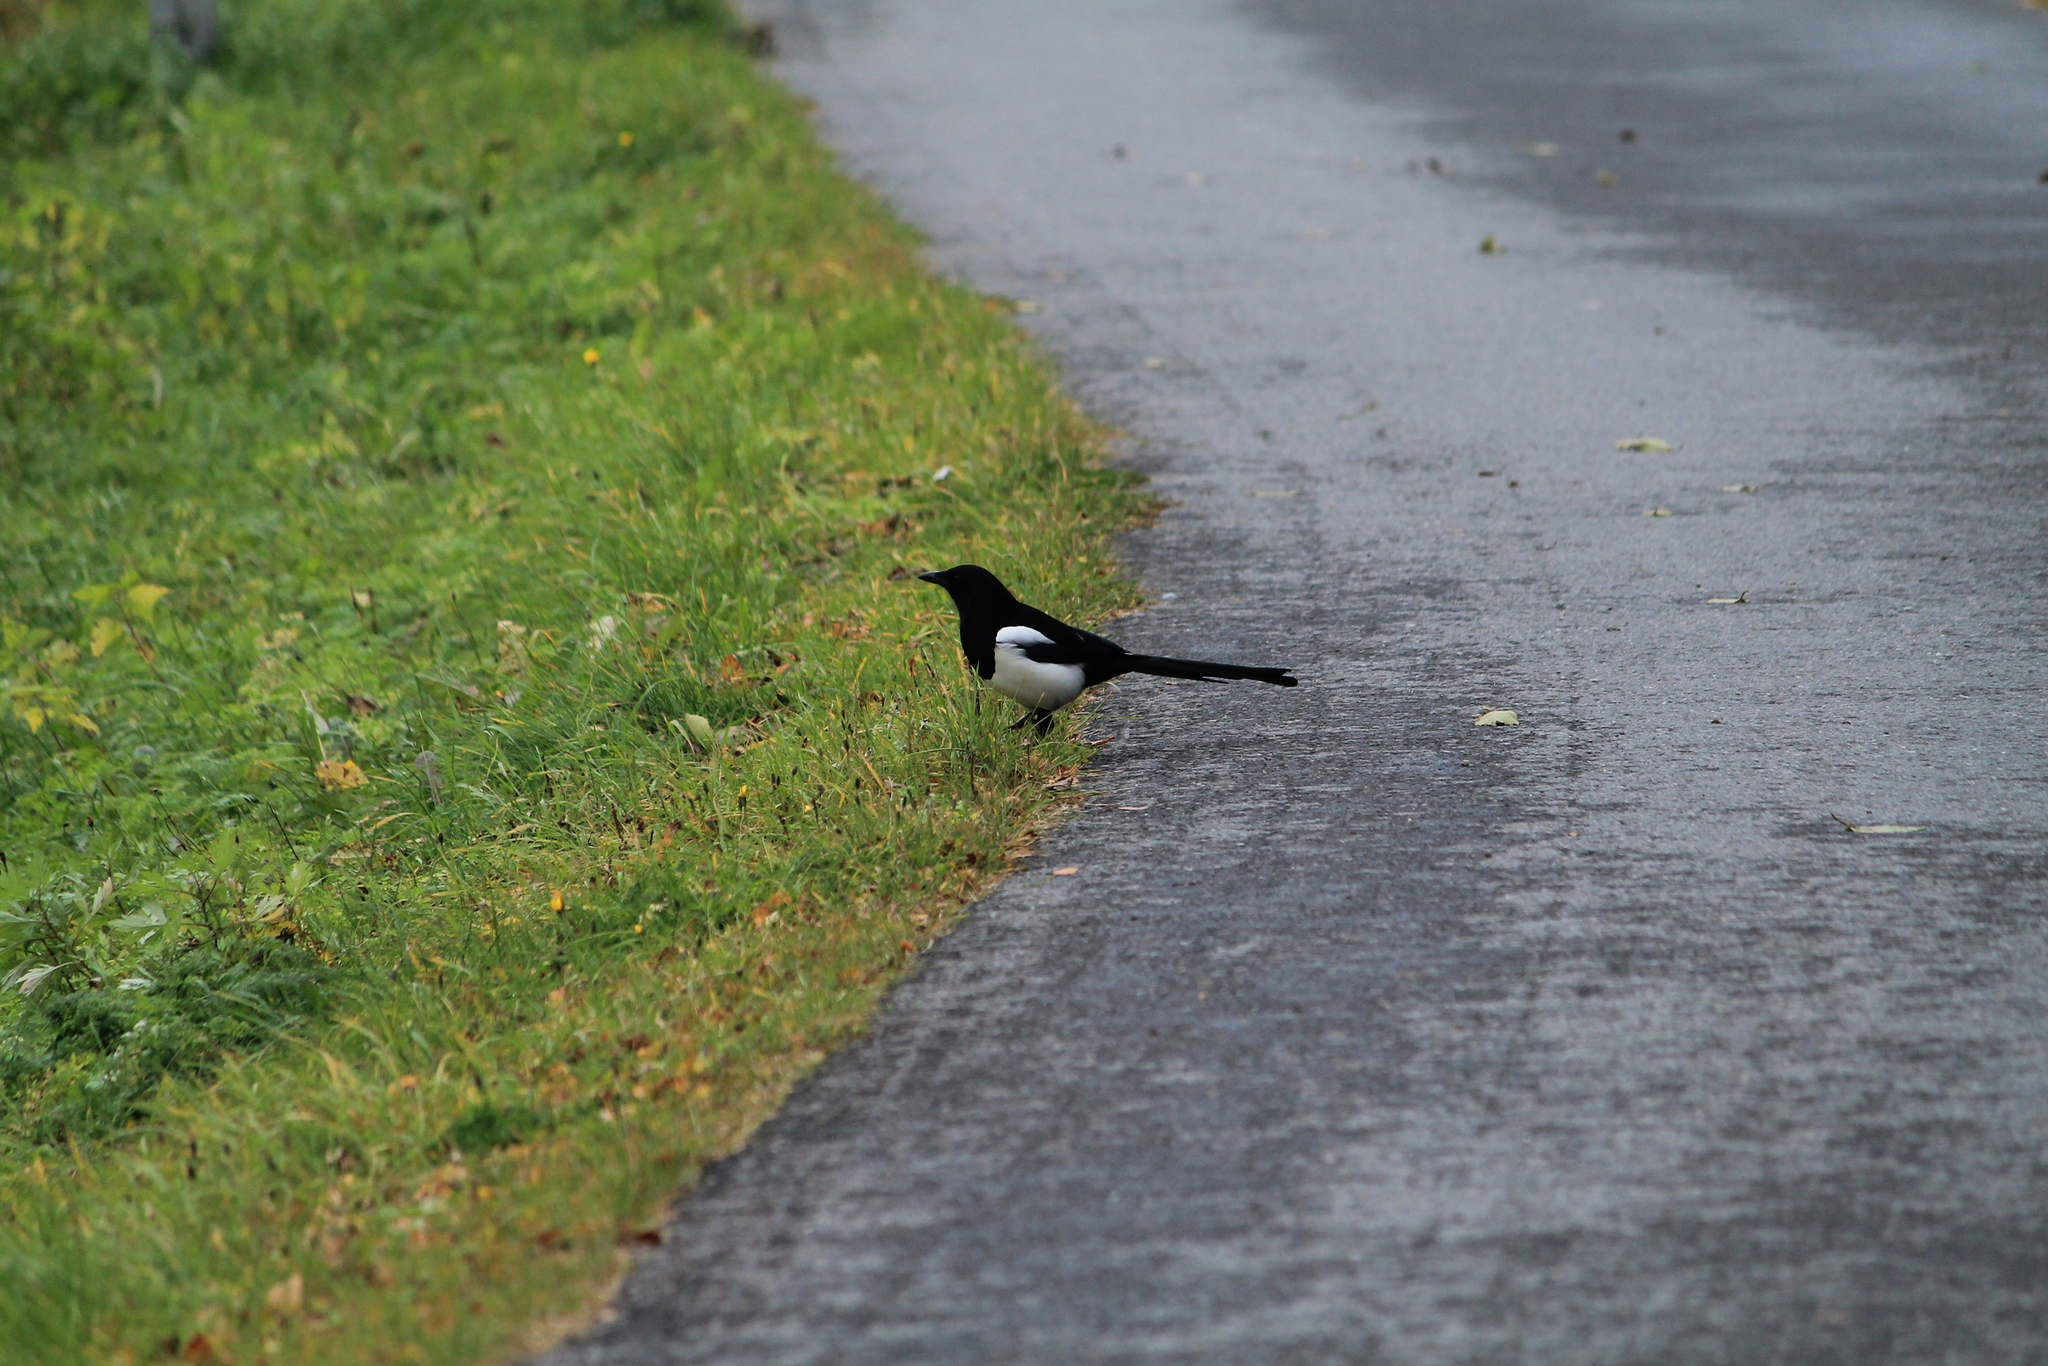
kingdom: Animalia
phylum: Chordata
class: Aves
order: Passeriformes
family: Corvidae
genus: Pica
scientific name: Pica pica
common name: Eurasian magpie
